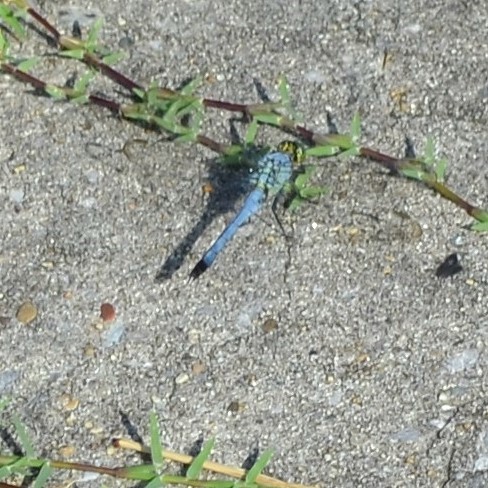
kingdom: Animalia
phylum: Arthropoda
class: Insecta
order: Odonata
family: Libellulidae
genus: Erythemis
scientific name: Erythemis simplicicollis
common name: Eastern pondhawk
